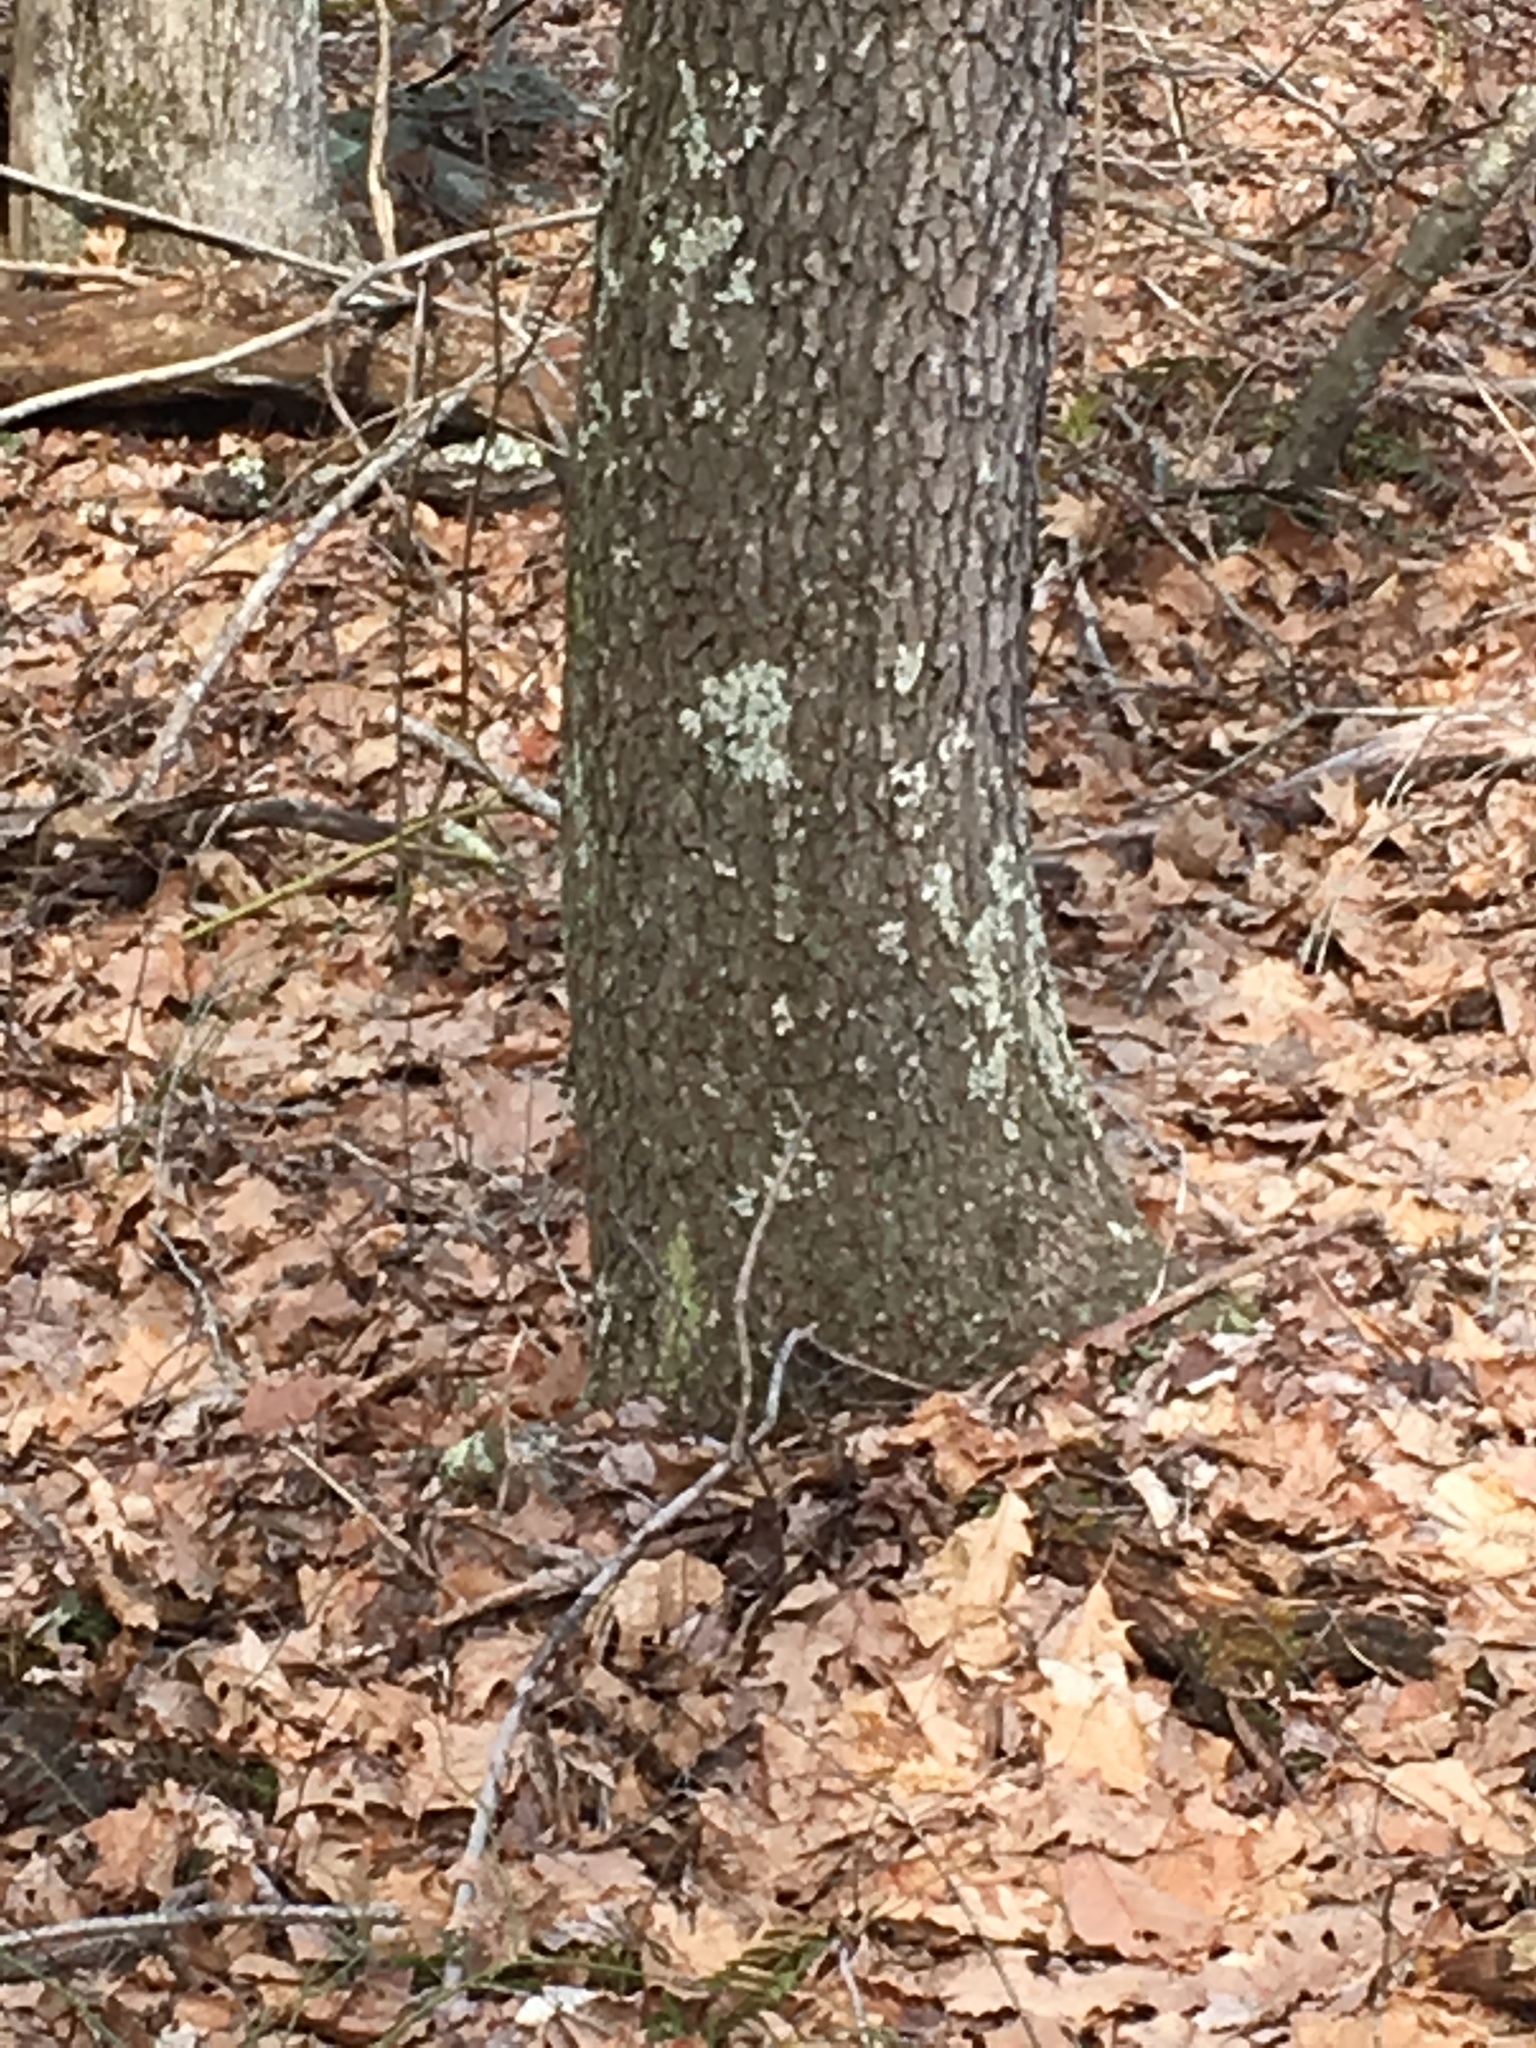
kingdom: Plantae
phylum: Tracheophyta
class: Magnoliopsida
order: Rosales
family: Rosaceae
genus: Prunus
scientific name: Prunus serotina
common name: Black cherry
